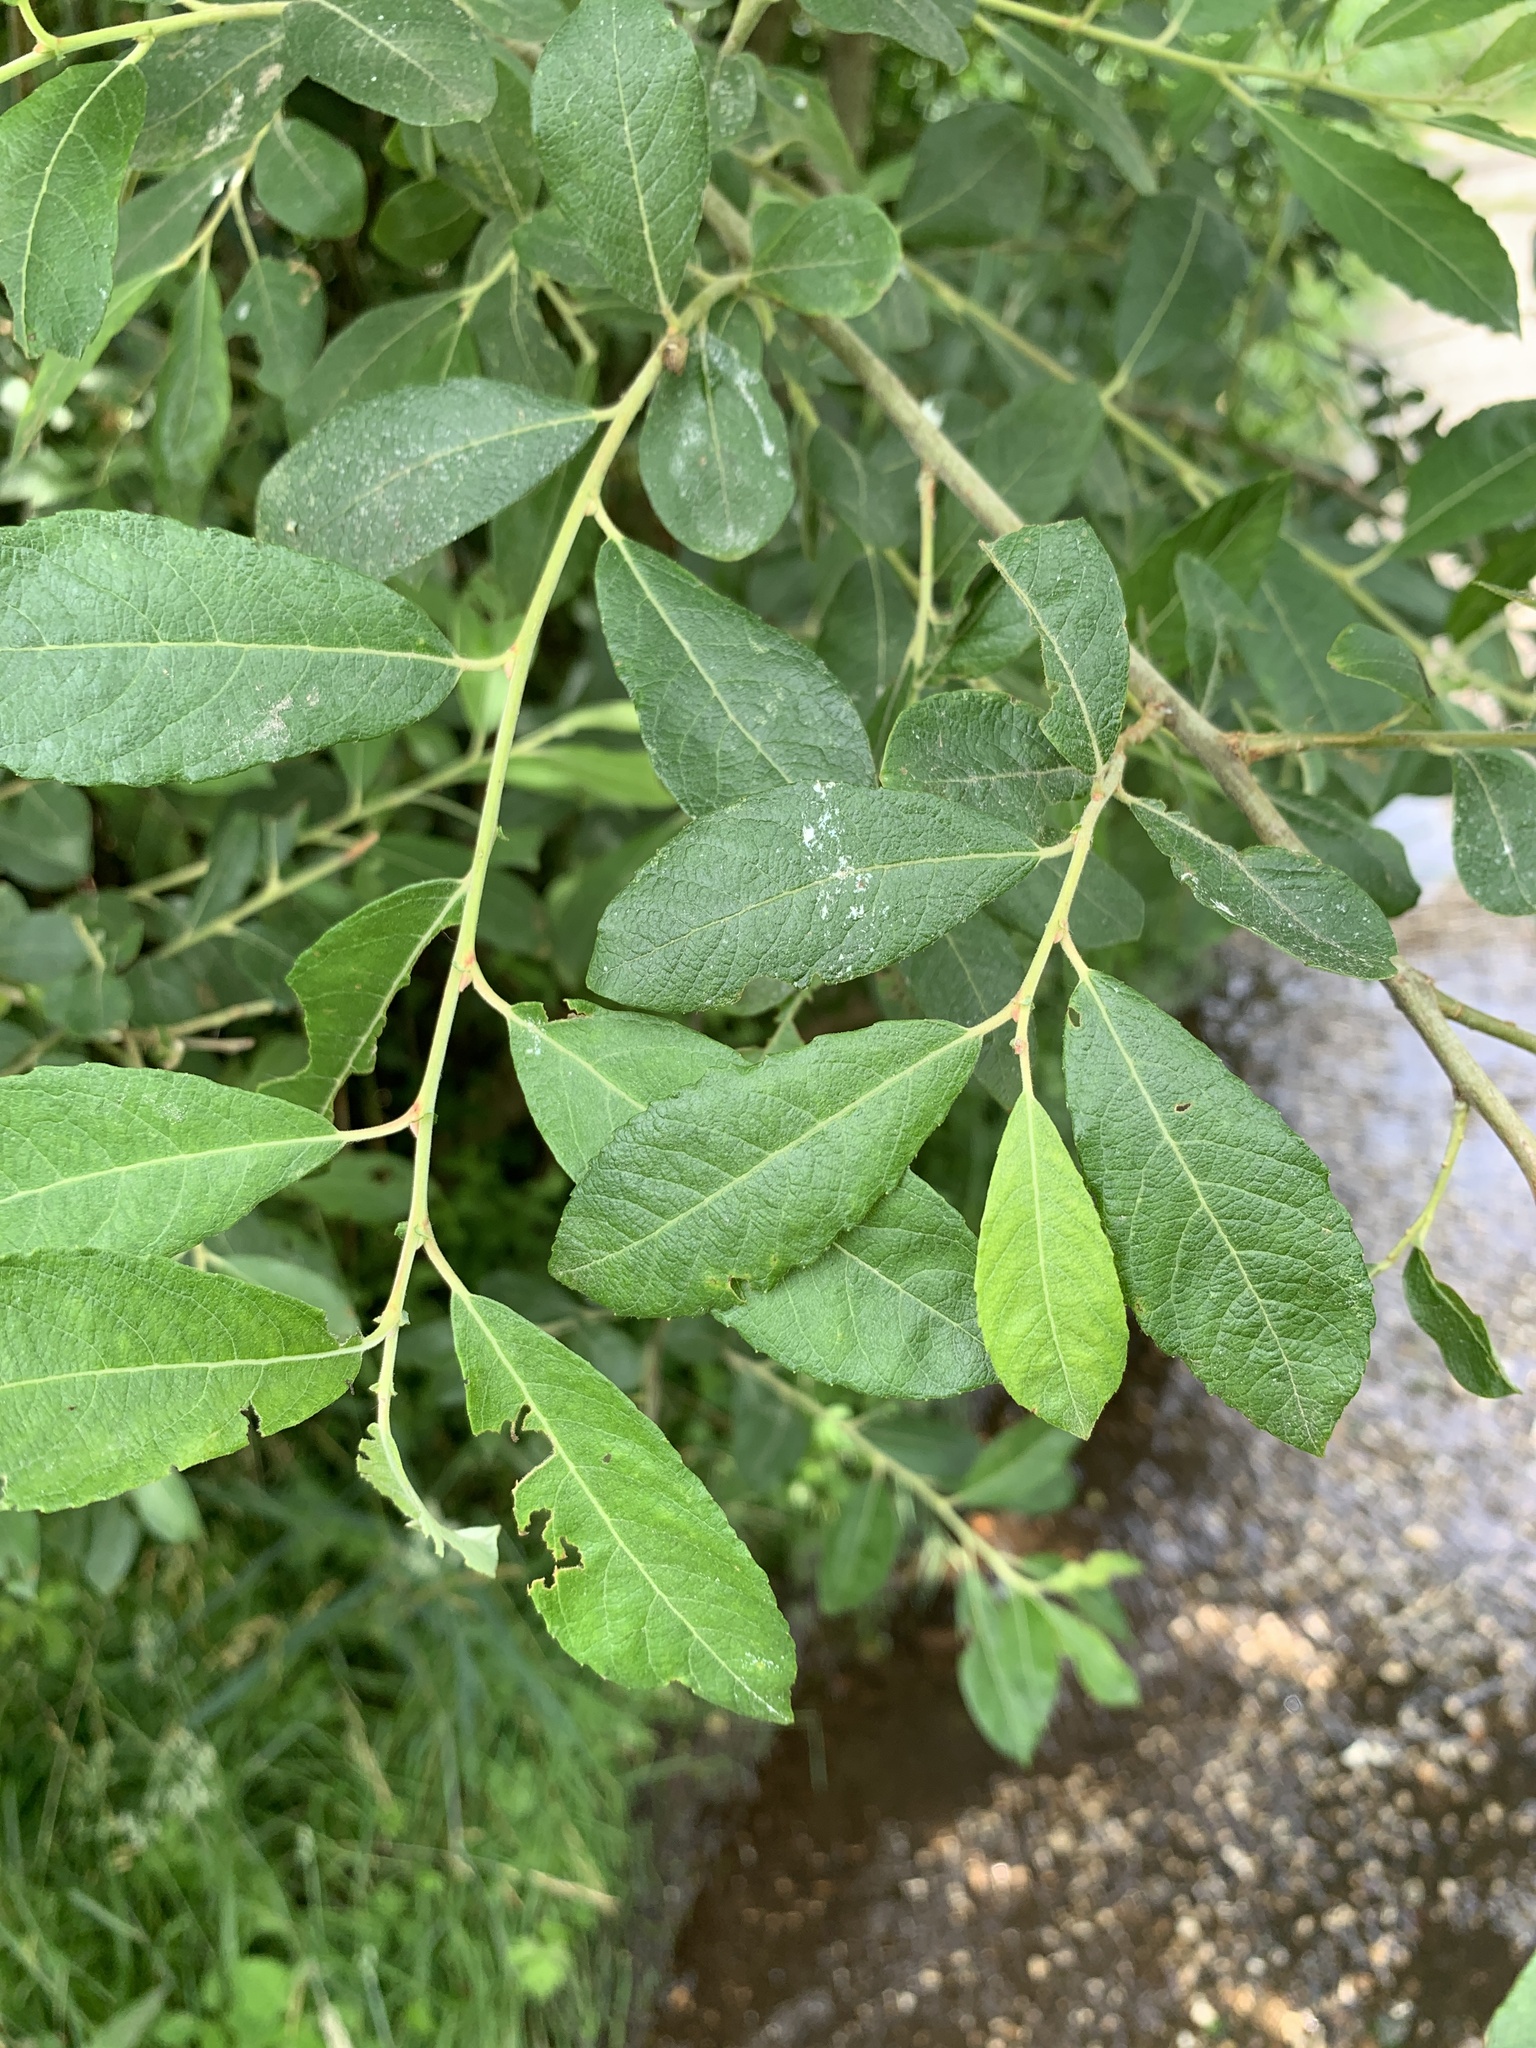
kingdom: Plantae
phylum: Tracheophyta
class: Magnoliopsida
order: Malpighiales
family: Salicaceae
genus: Salix
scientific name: Salix cinerea
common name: Common sallow
